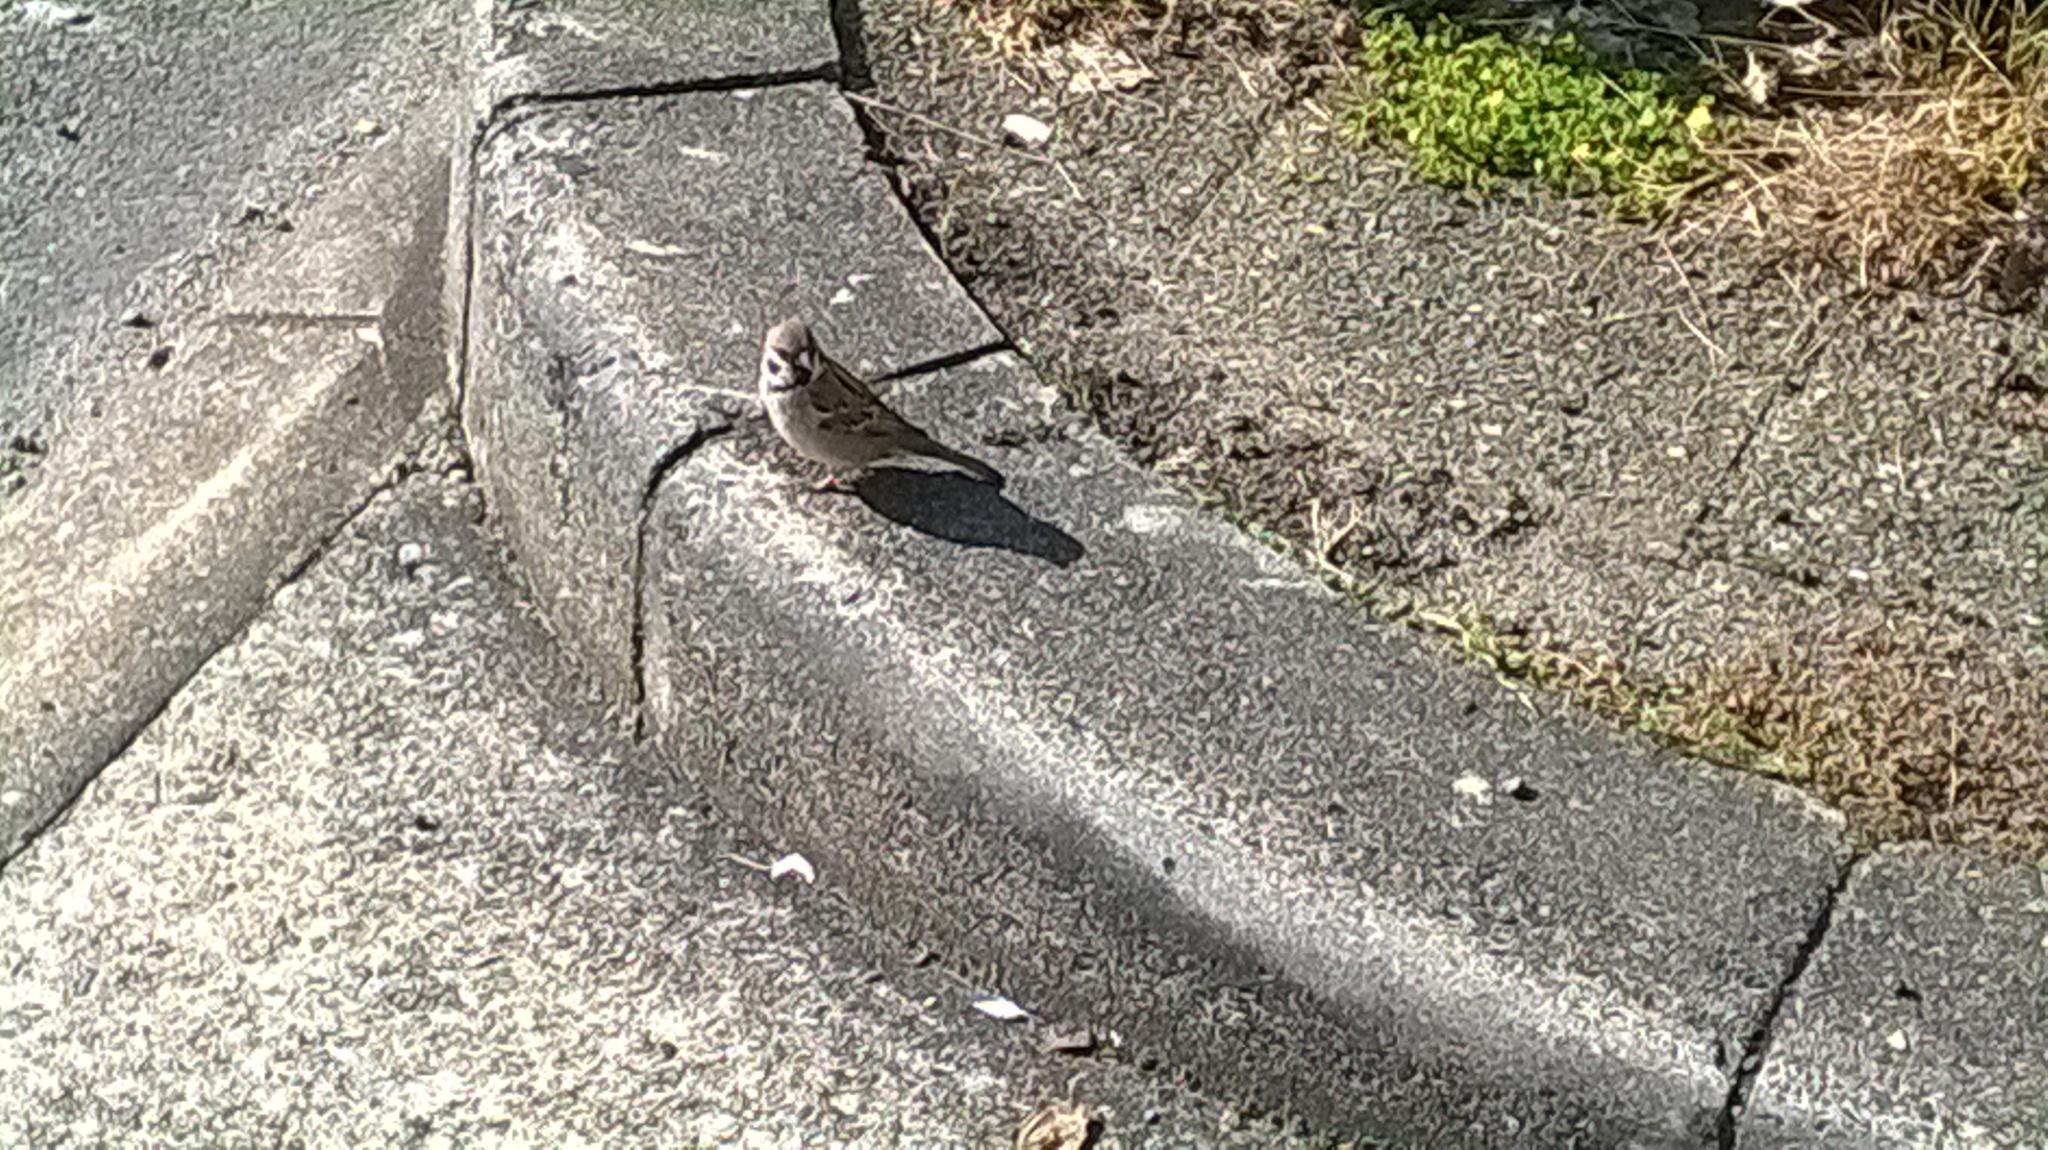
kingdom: Animalia
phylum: Chordata
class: Aves
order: Passeriformes
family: Passeridae
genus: Passer
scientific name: Passer montanus
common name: Eurasian tree sparrow
